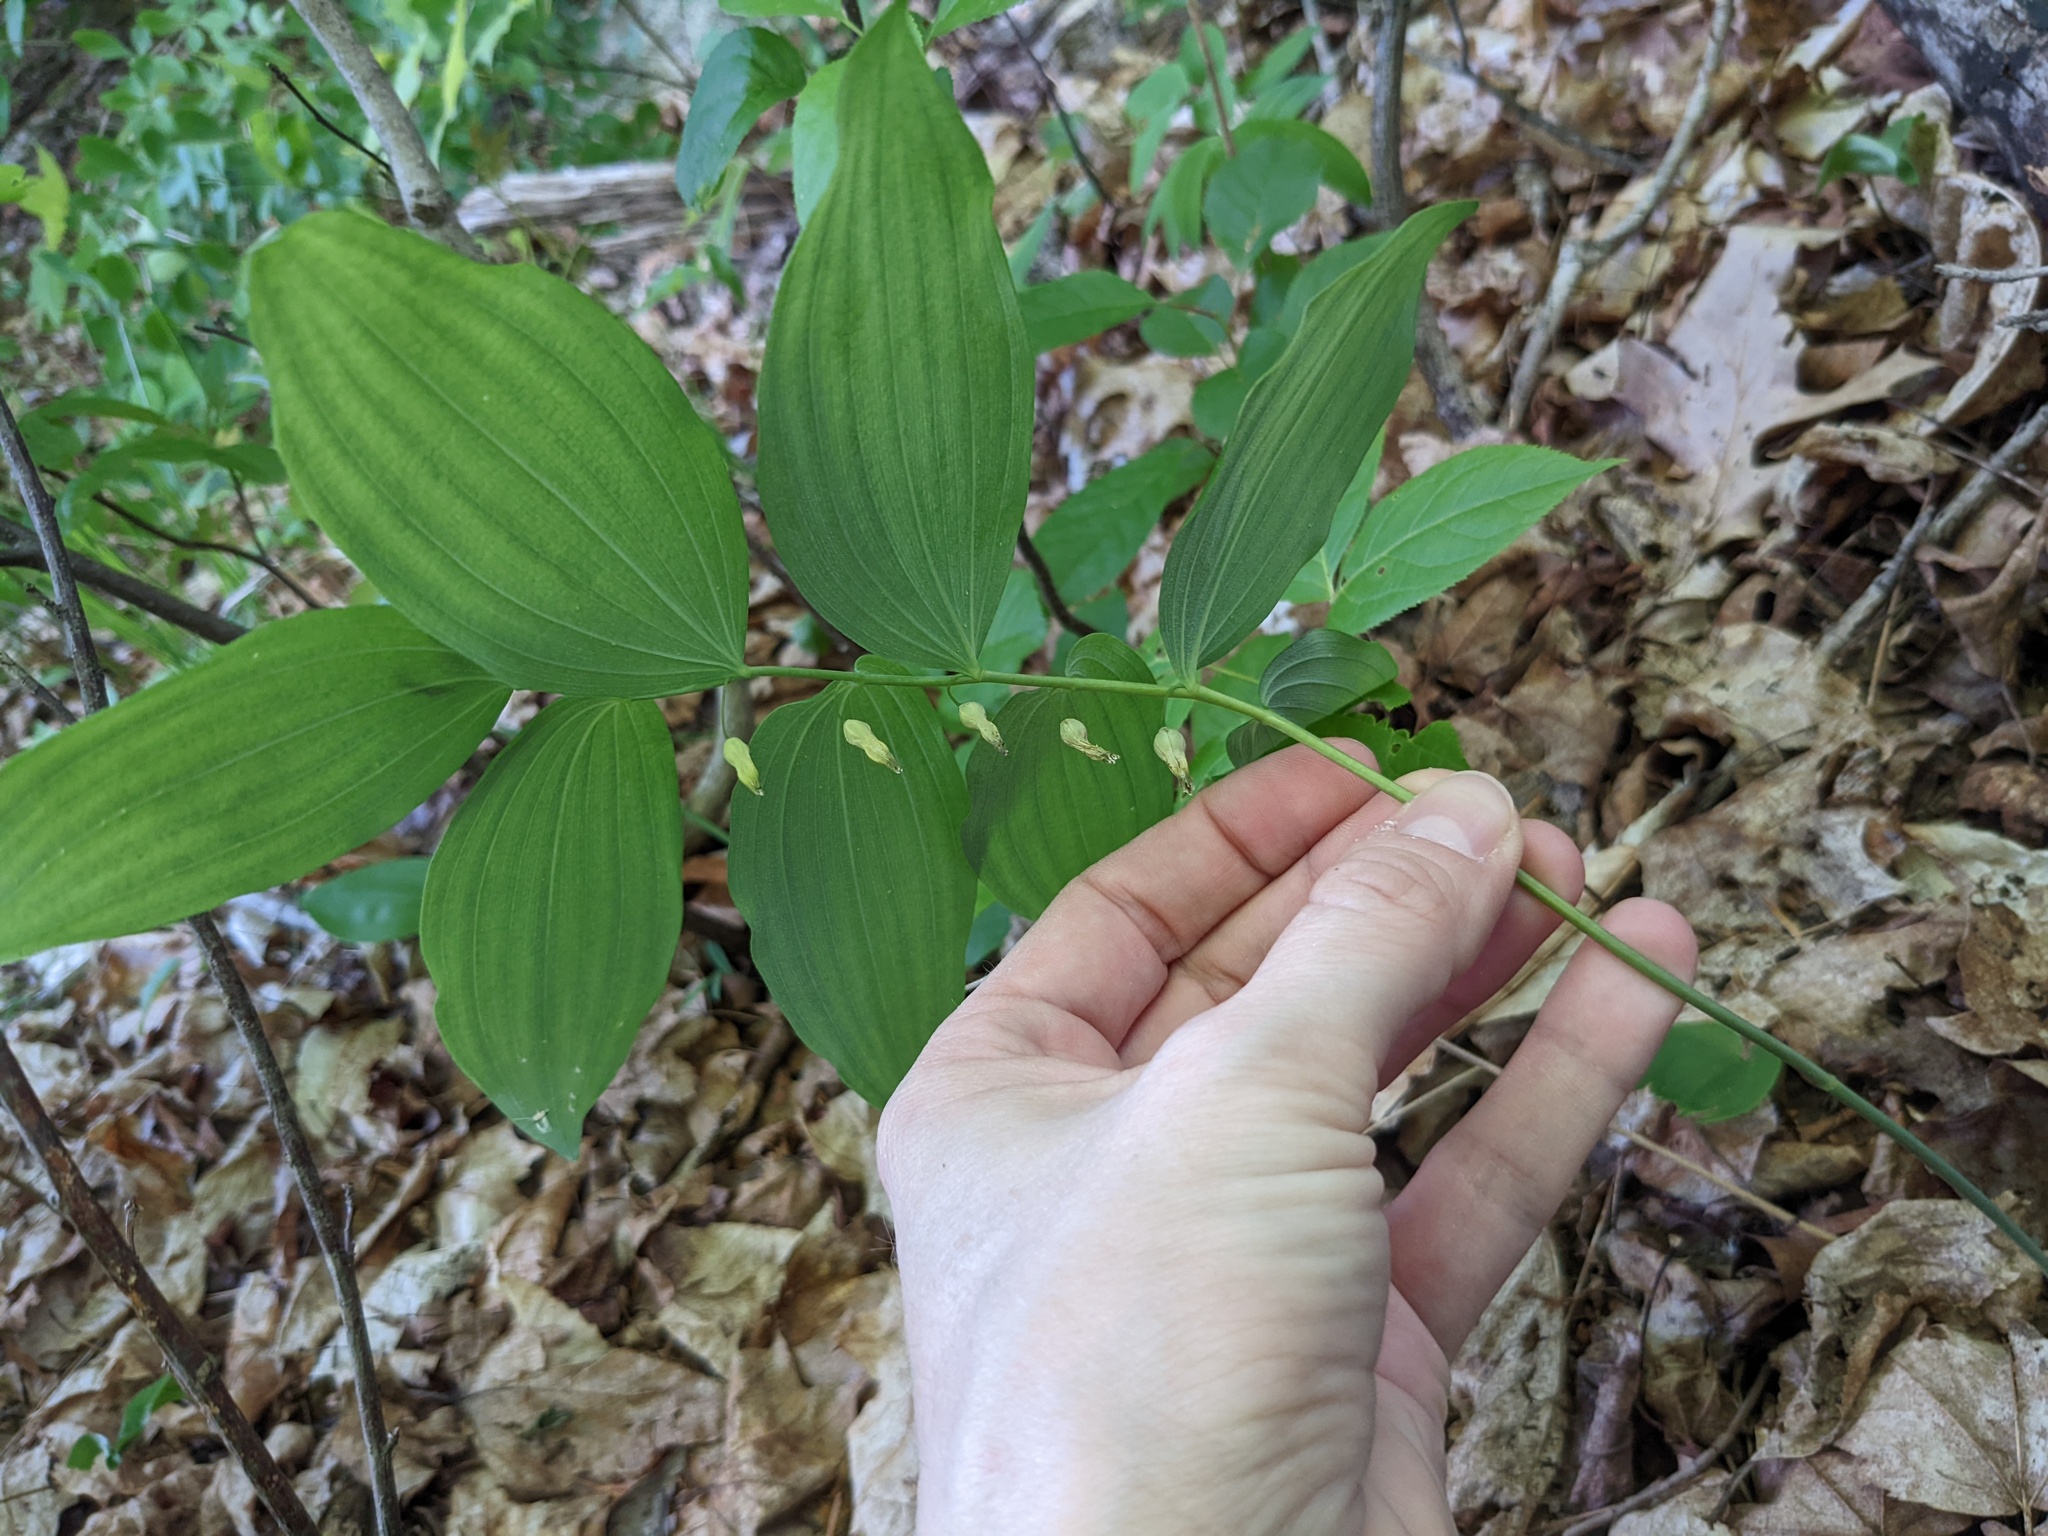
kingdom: Plantae
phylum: Tracheophyta
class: Liliopsida
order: Asparagales
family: Asparagaceae
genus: Polygonatum
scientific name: Polygonatum pubescens
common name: Downy solomon's seal
